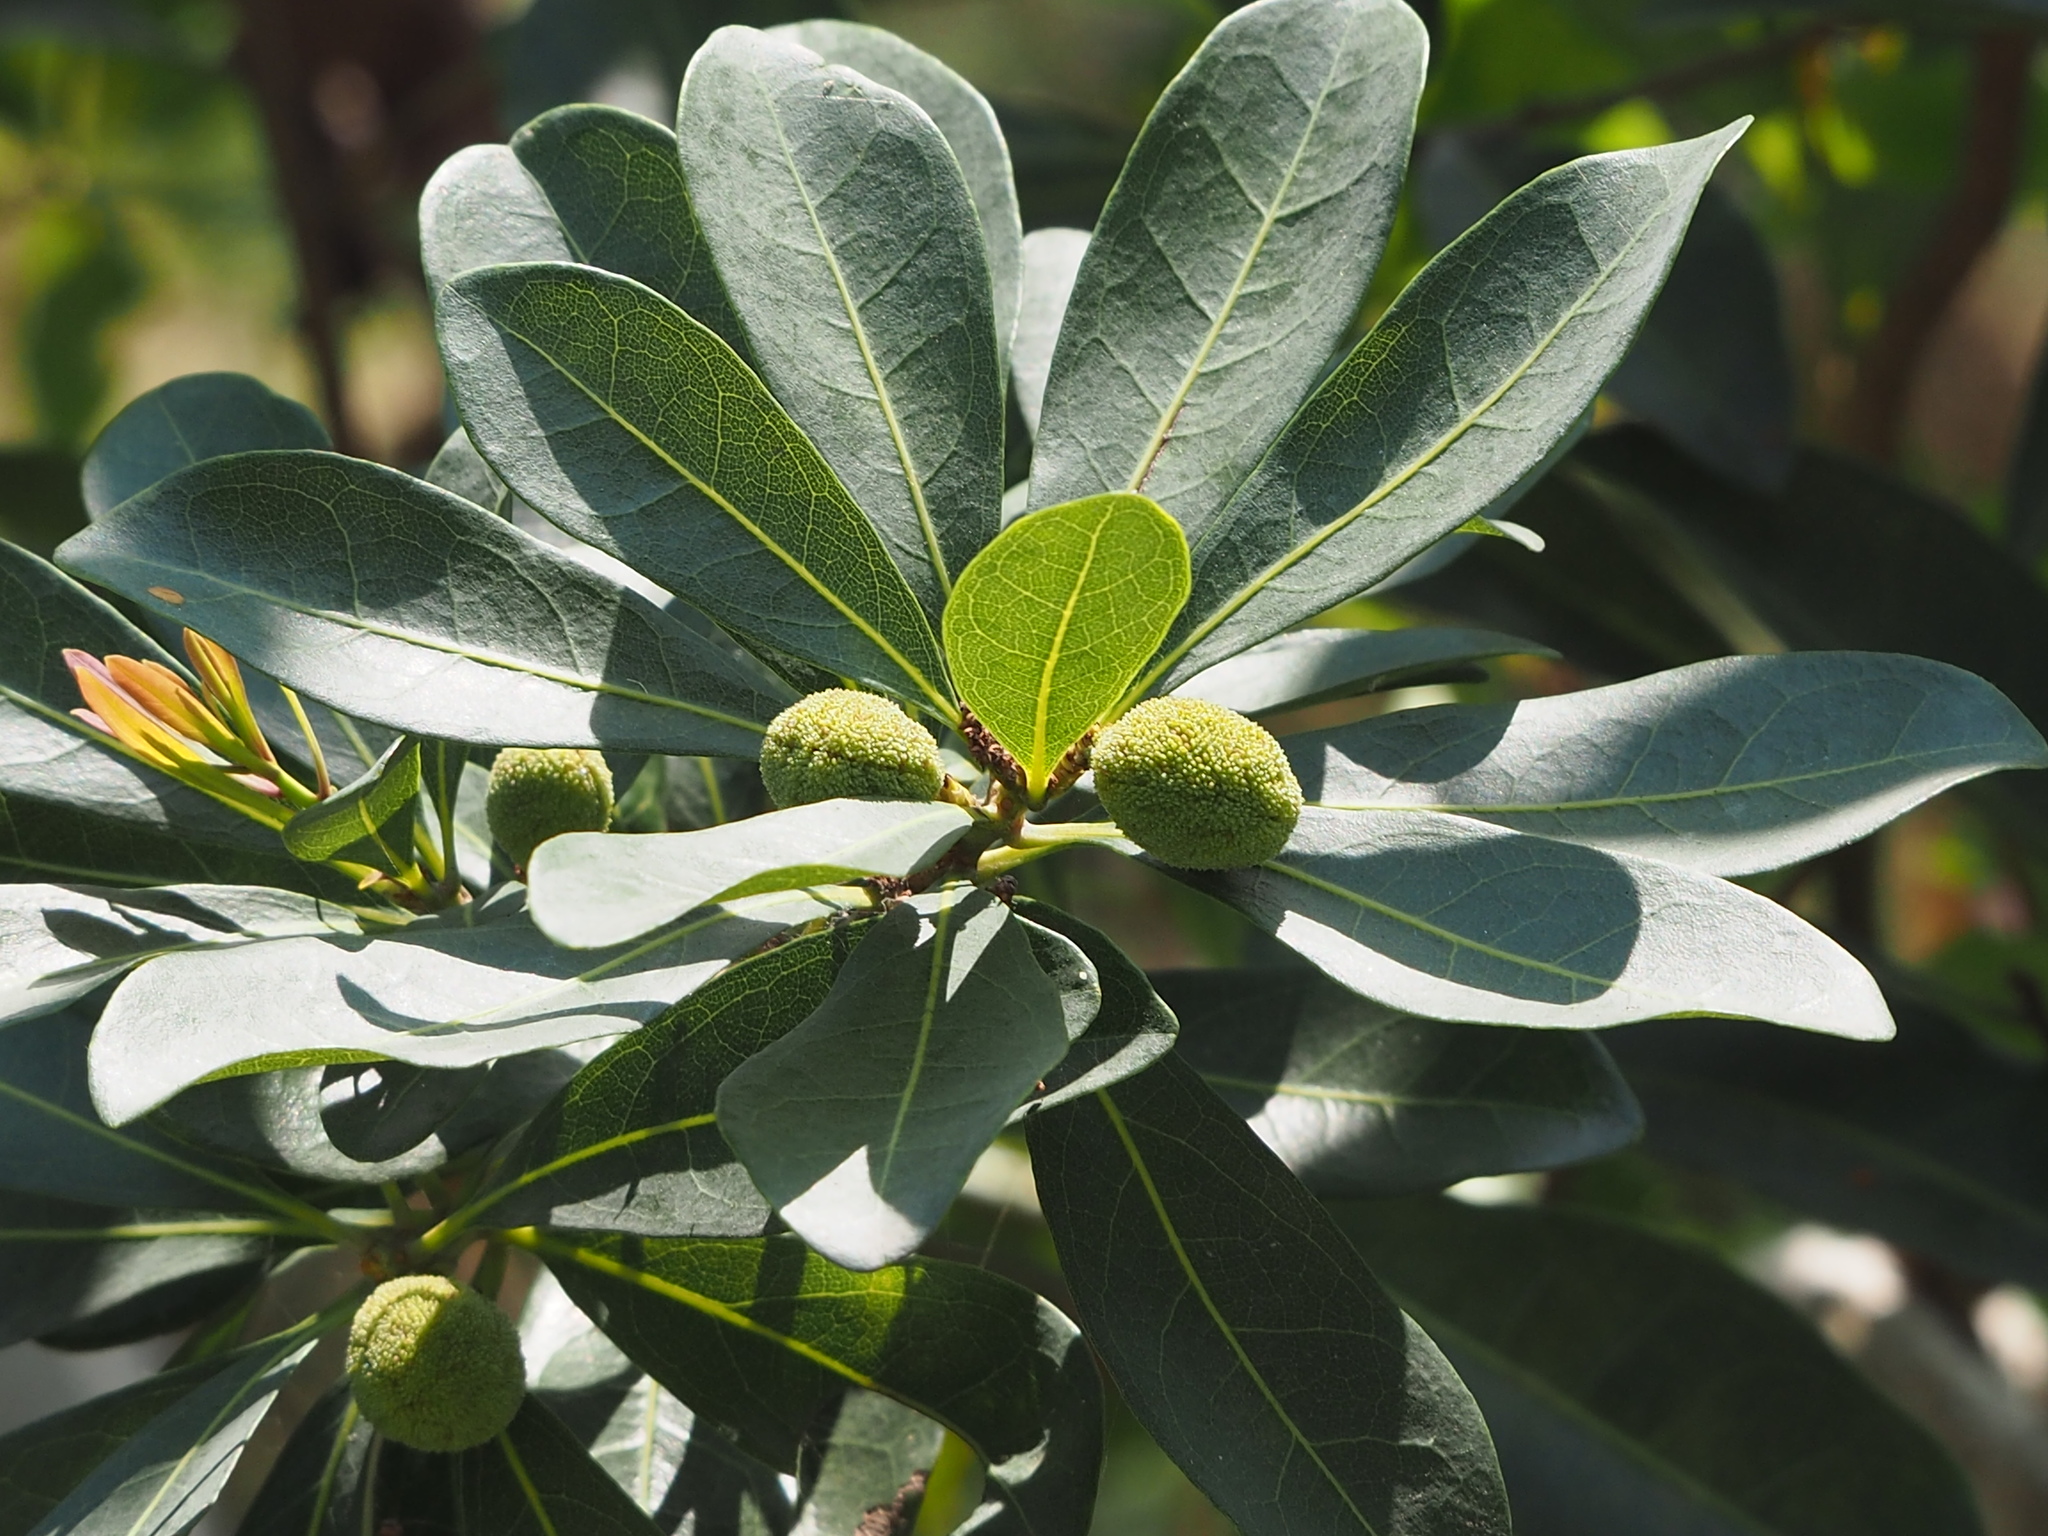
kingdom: Plantae
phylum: Tracheophyta
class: Magnoliopsida
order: Fagales
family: Myricaceae
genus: Morella
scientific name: Morella rubra
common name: Red bayberry
